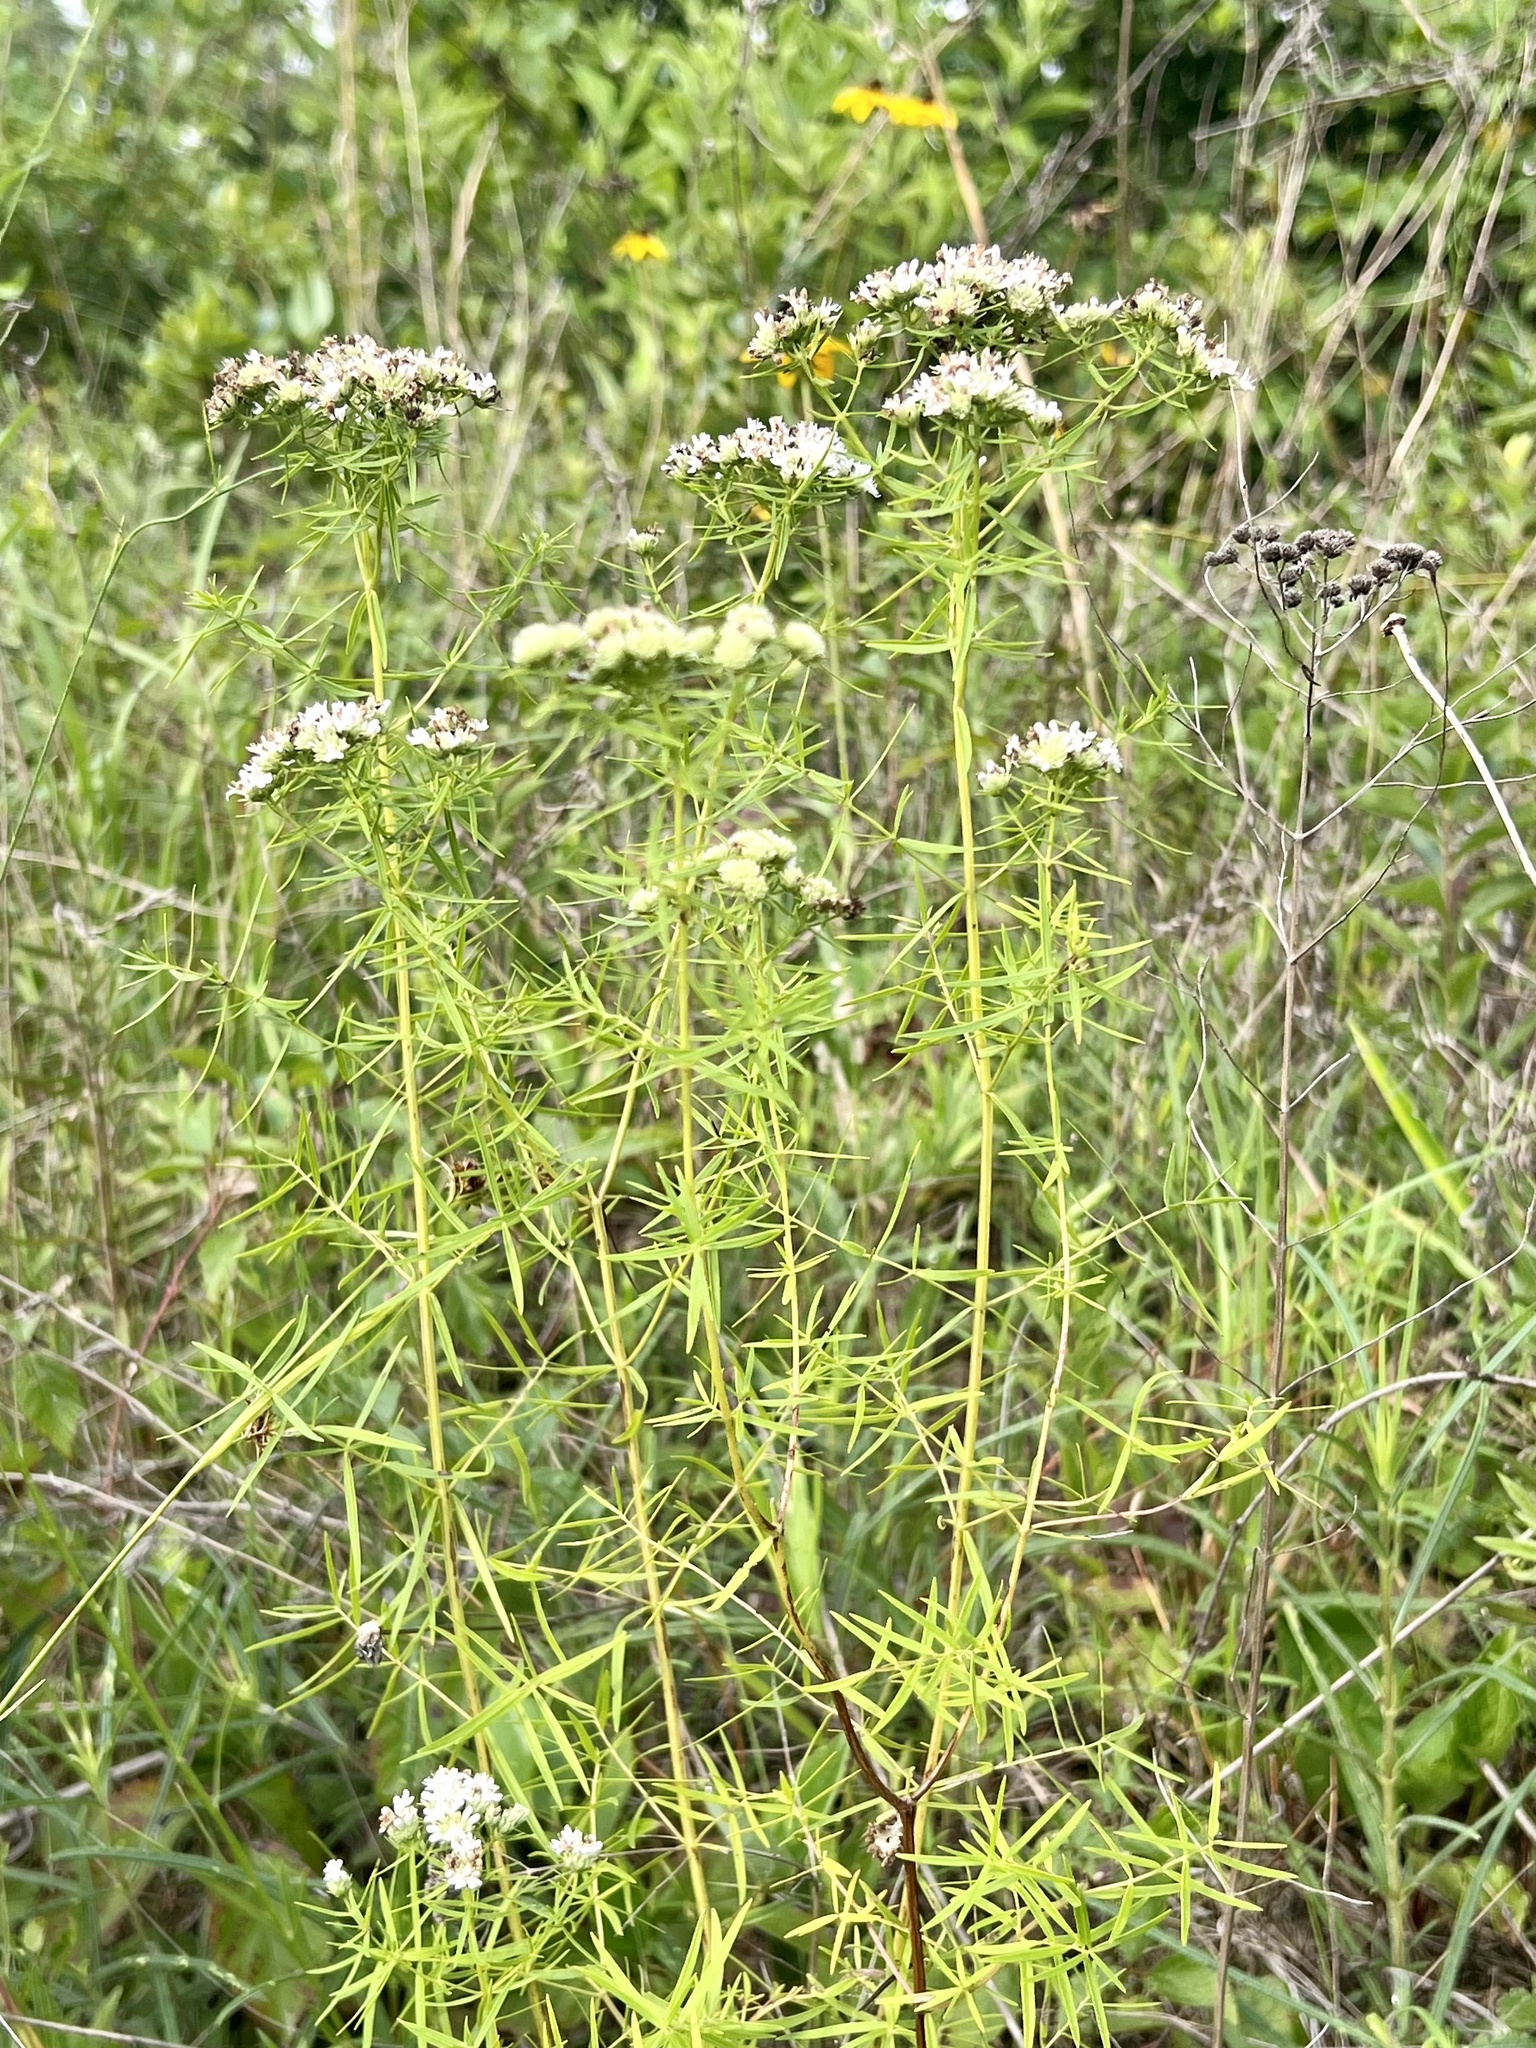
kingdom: Plantae
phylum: Tracheophyta
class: Magnoliopsida
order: Lamiales
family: Lamiaceae
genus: Pycnanthemum
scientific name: Pycnanthemum tenuifolium
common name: Narrow-leaf mountain-mint
